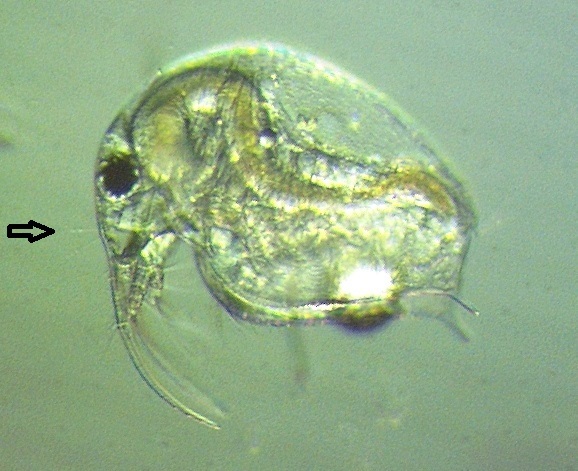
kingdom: Animalia
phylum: Arthropoda
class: Branchiopoda
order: Diplostraca
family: Bosminidae
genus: Bosmina
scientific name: Bosmina longirostris
